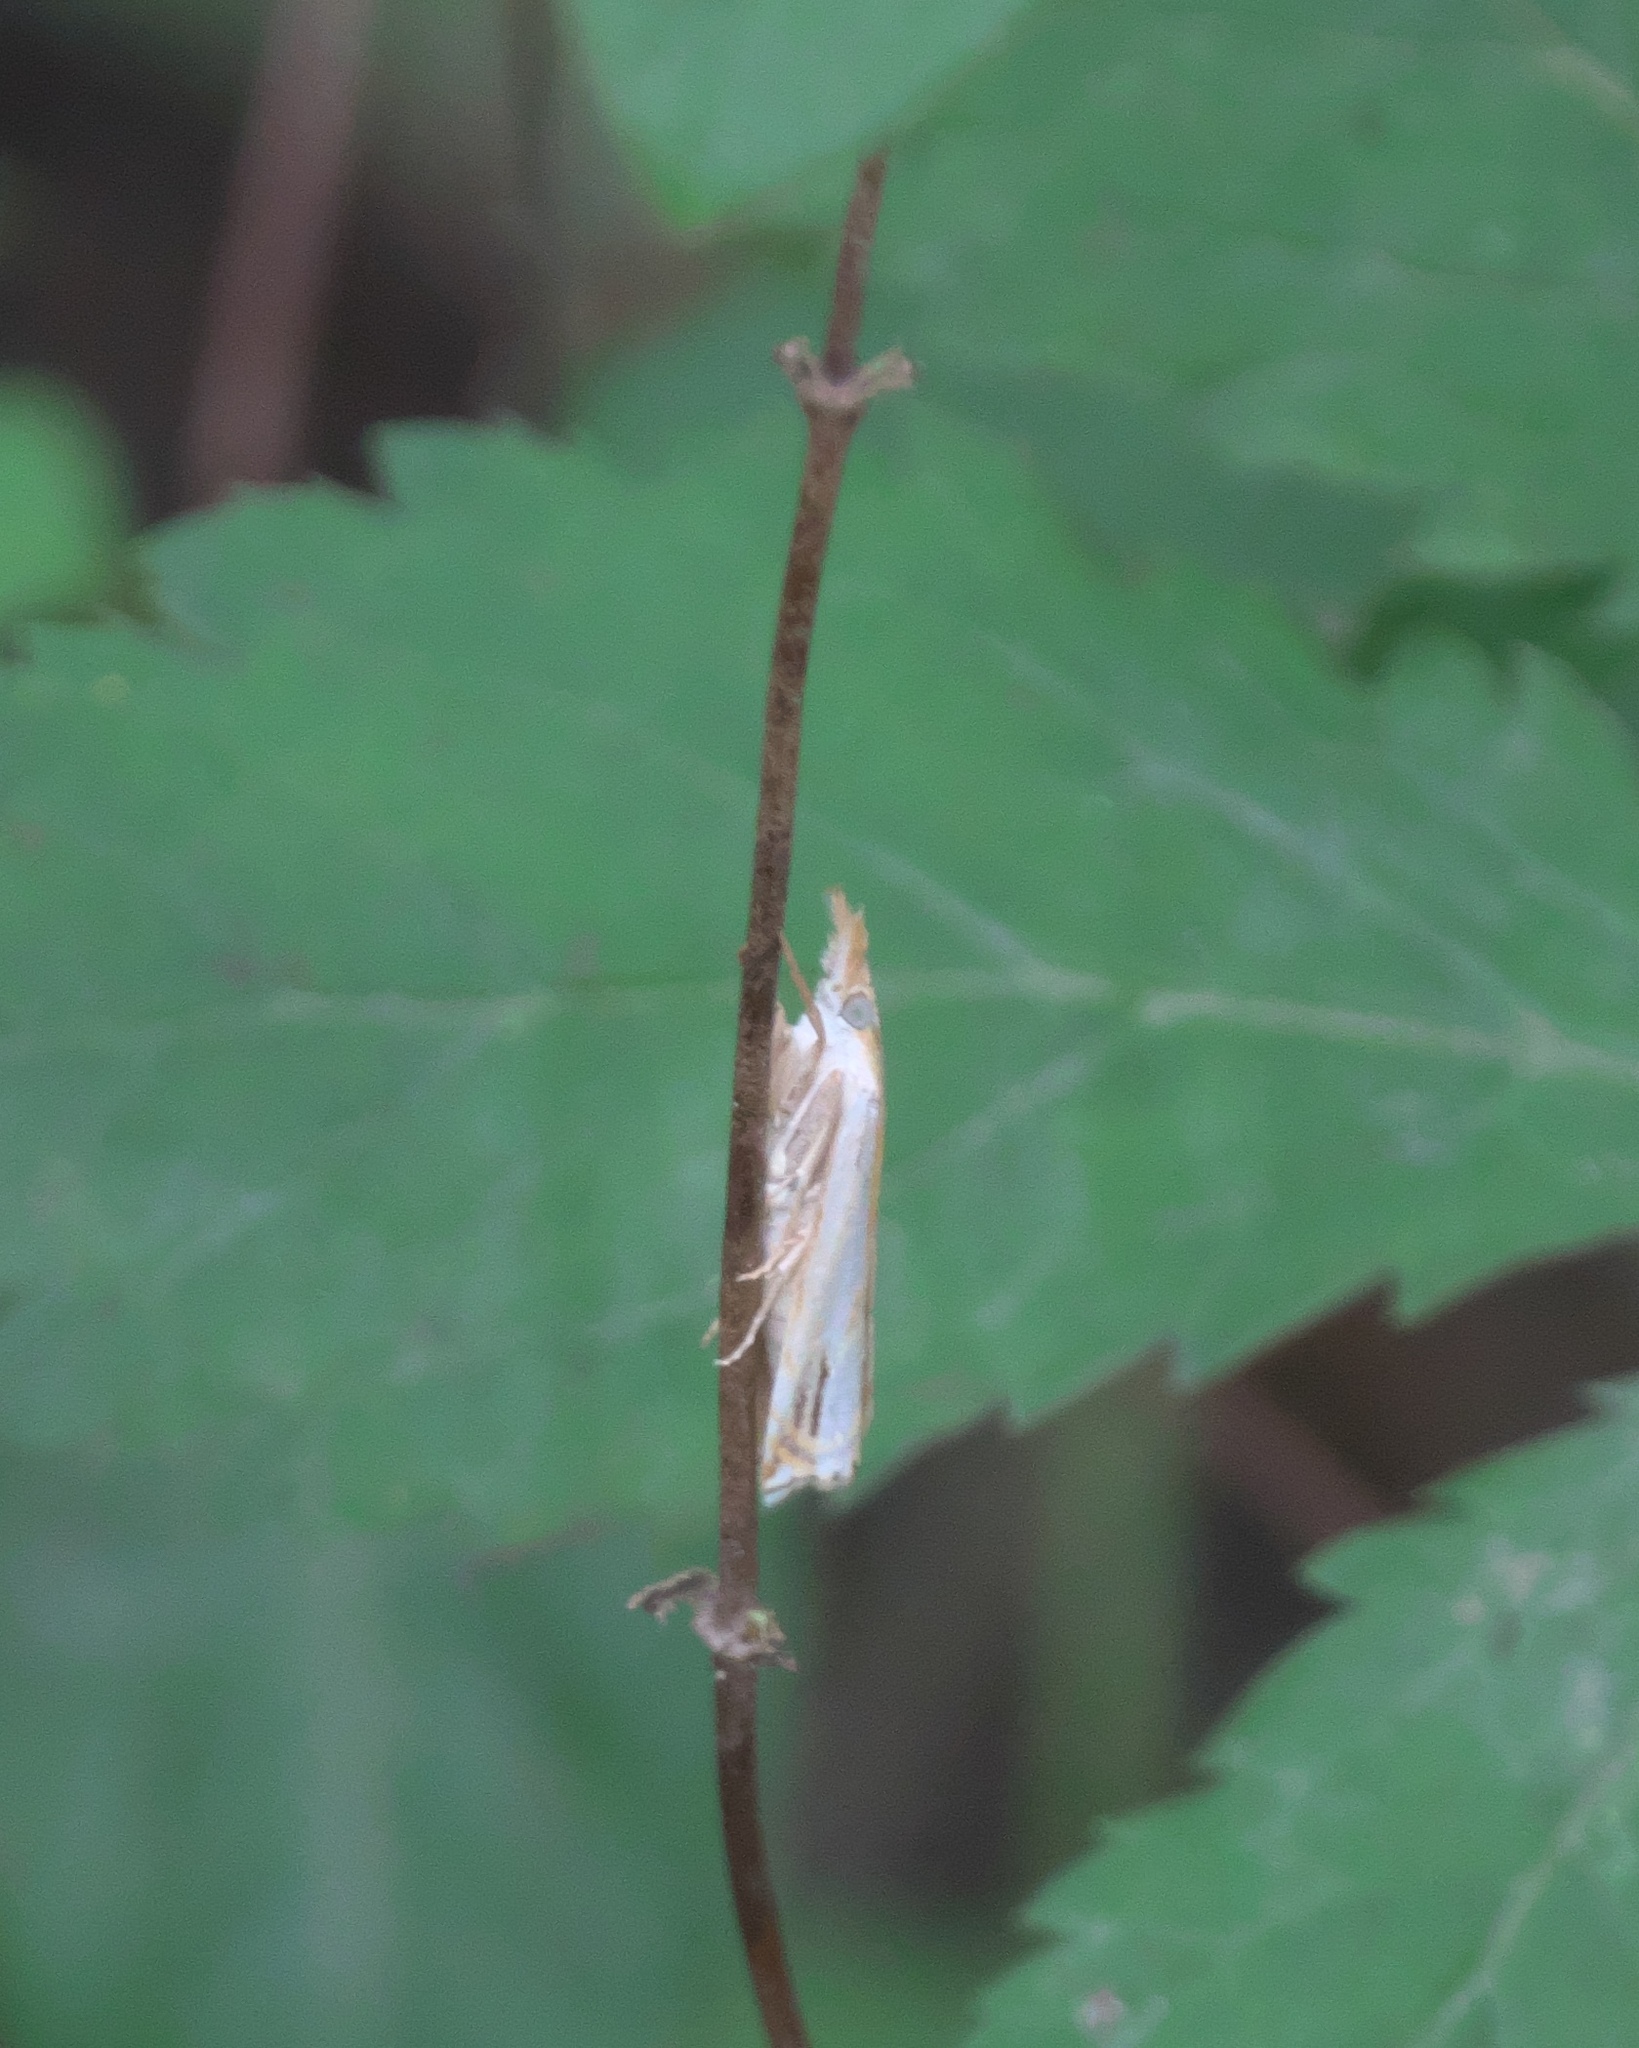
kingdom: Animalia
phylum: Arthropoda
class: Insecta
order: Lepidoptera
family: Crambidae
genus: Crambus
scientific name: Crambus agitatellus
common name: Double-banded grass-veneer
